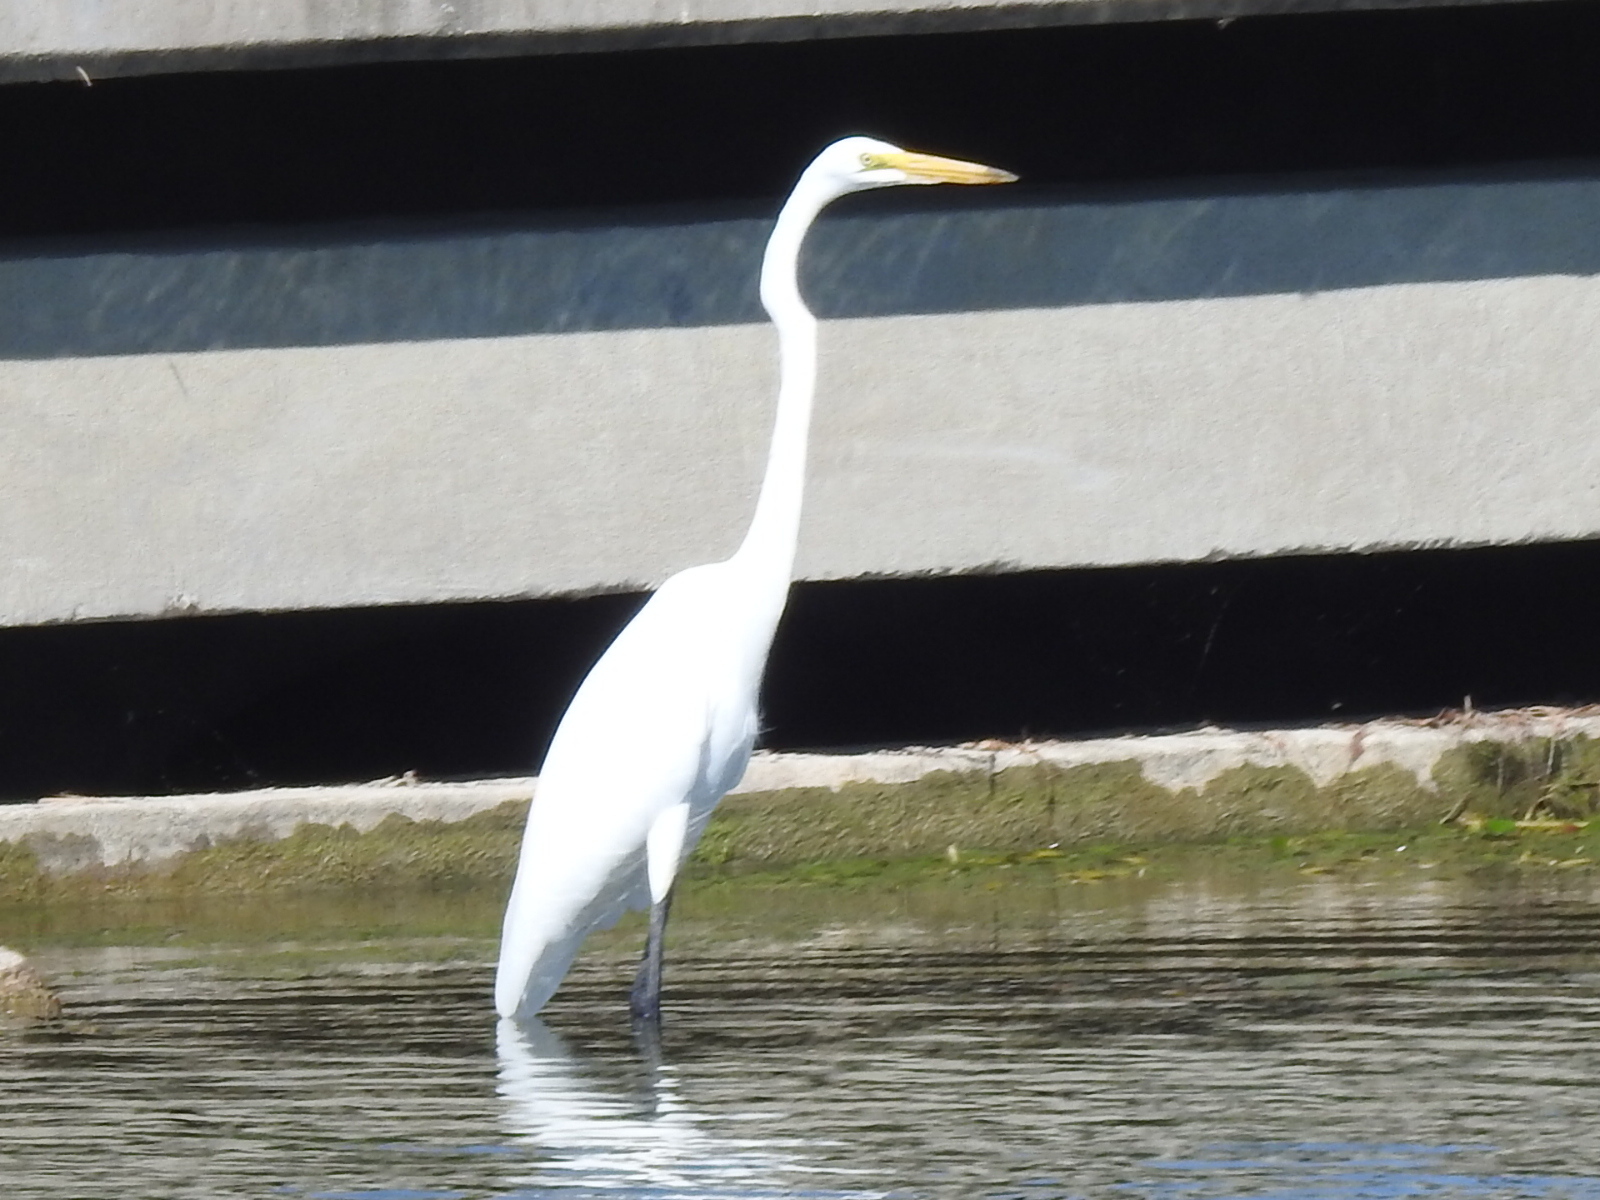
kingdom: Animalia
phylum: Chordata
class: Aves
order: Pelecaniformes
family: Ardeidae
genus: Ardea
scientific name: Ardea alba
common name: Great egret
